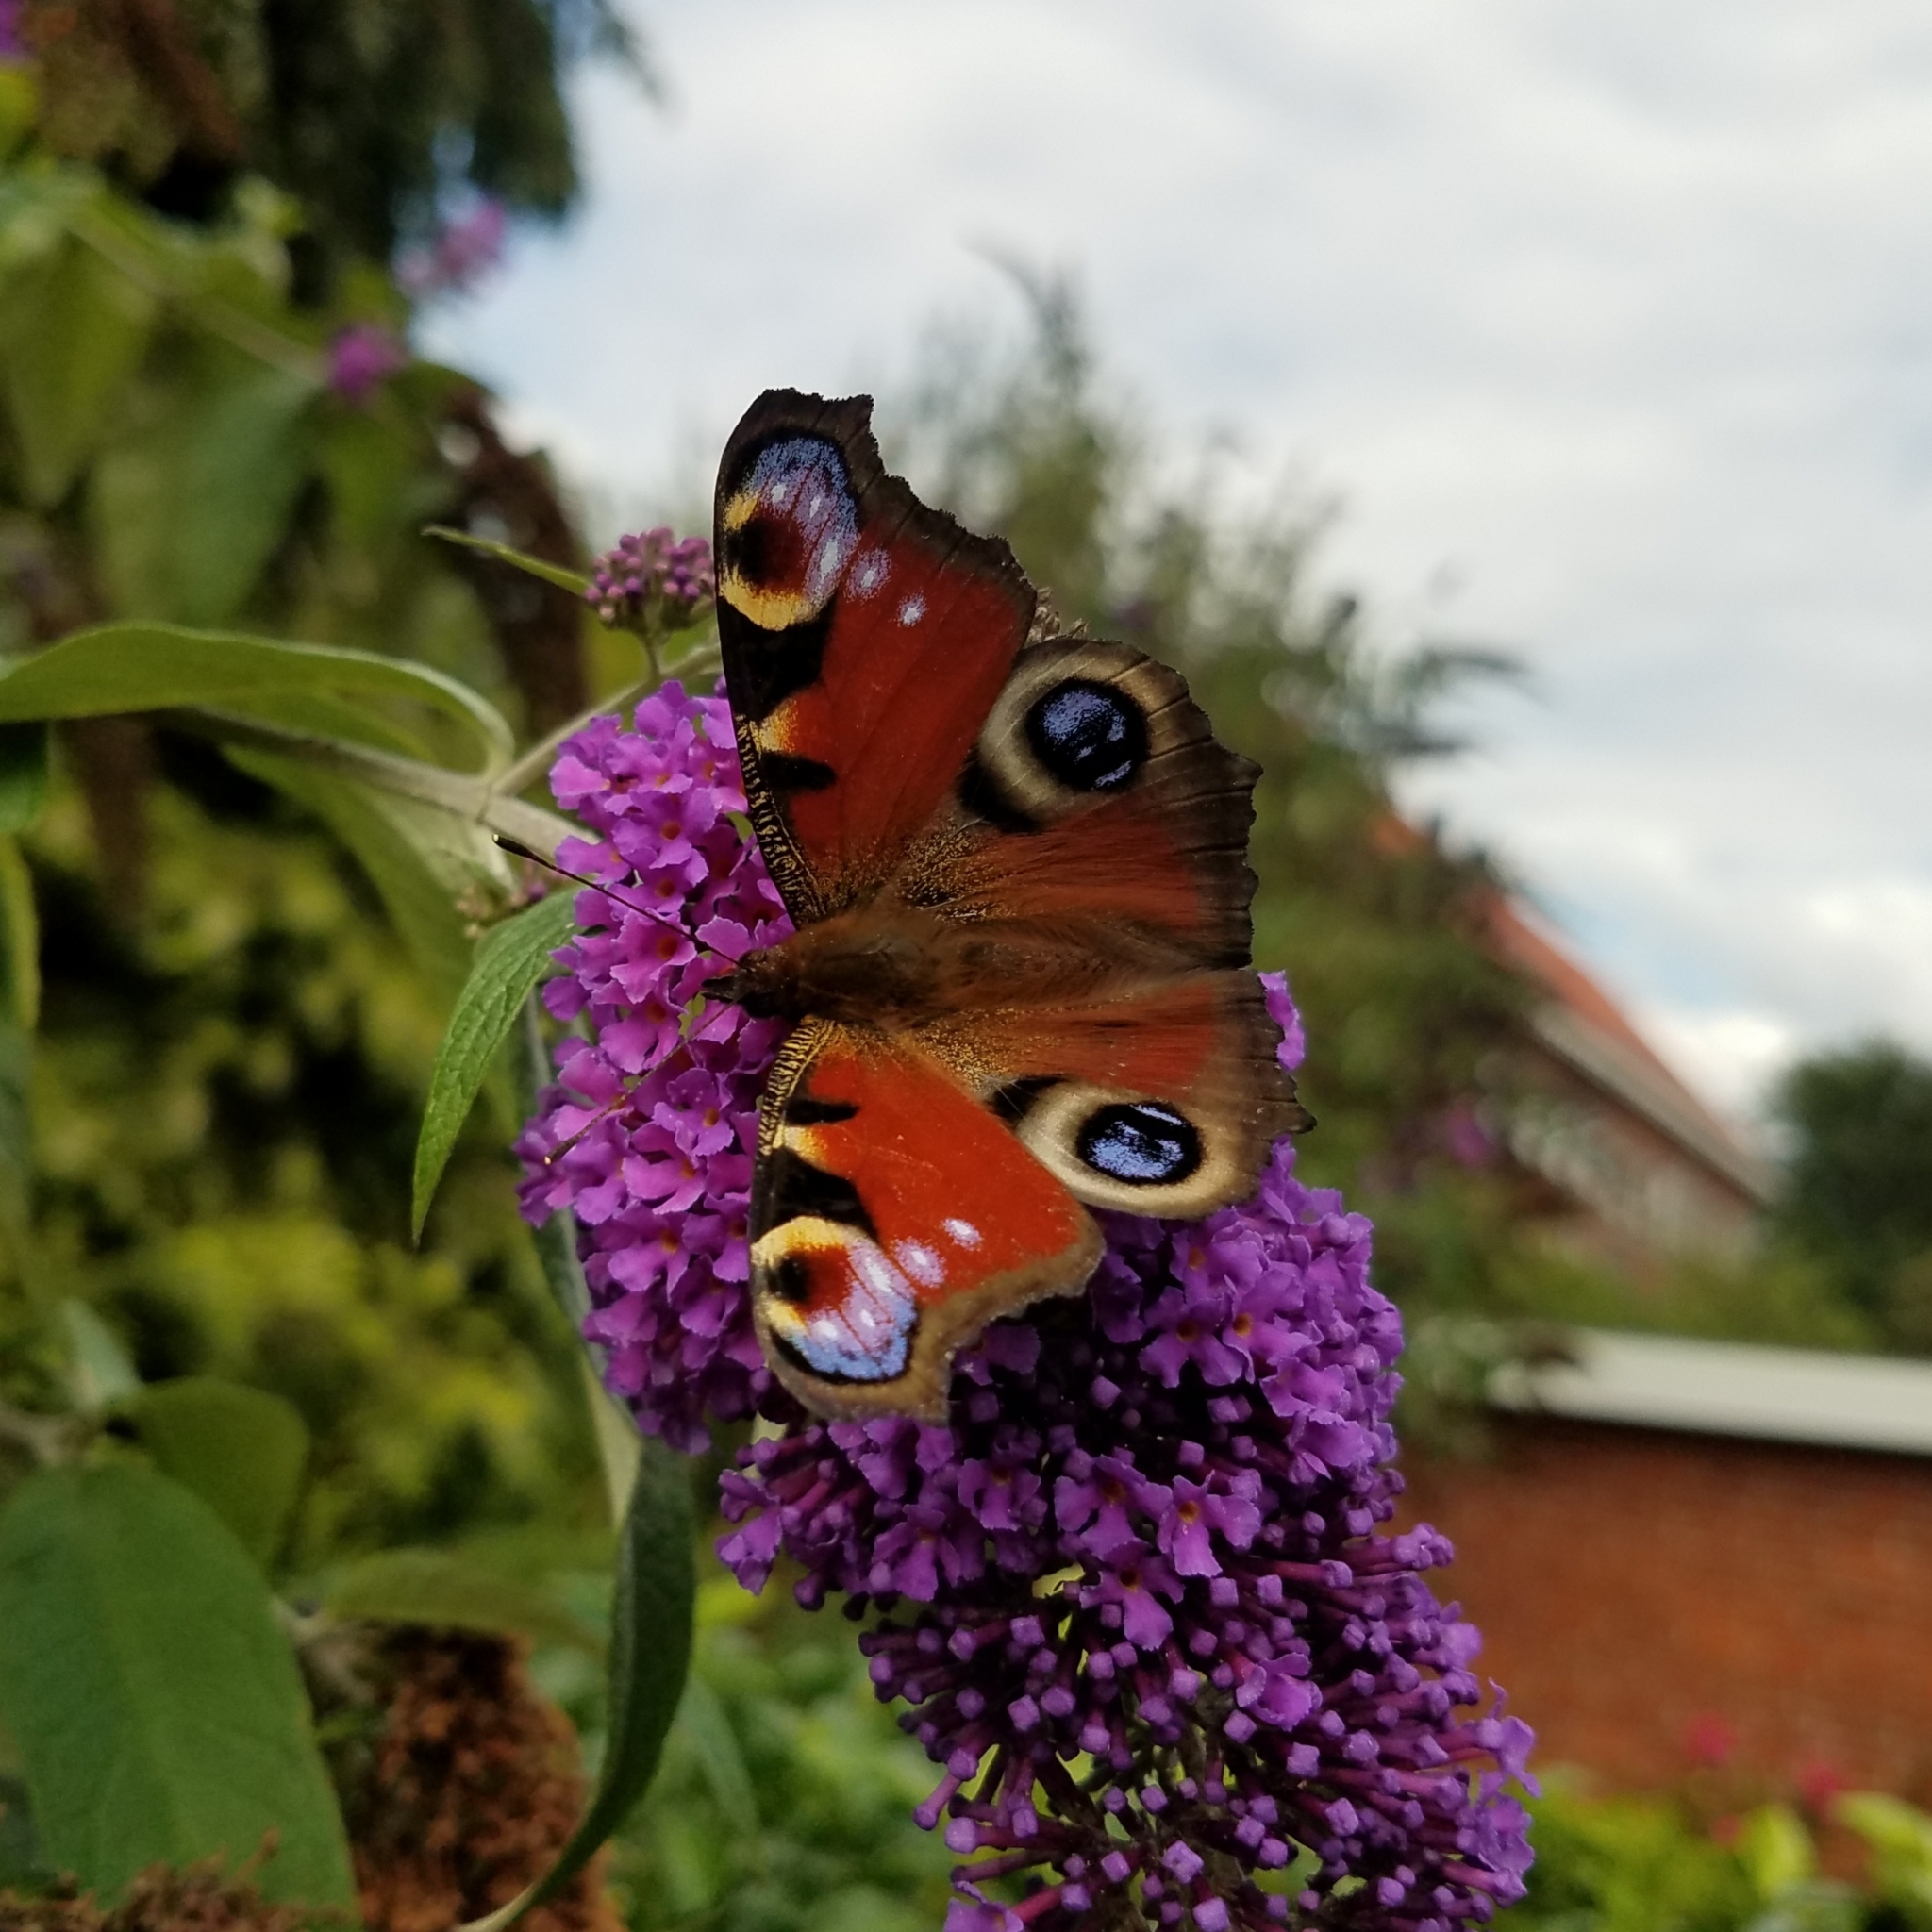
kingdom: Animalia
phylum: Arthropoda
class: Insecta
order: Lepidoptera
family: Nymphalidae
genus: Aglais
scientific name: Aglais io
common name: Peacock
